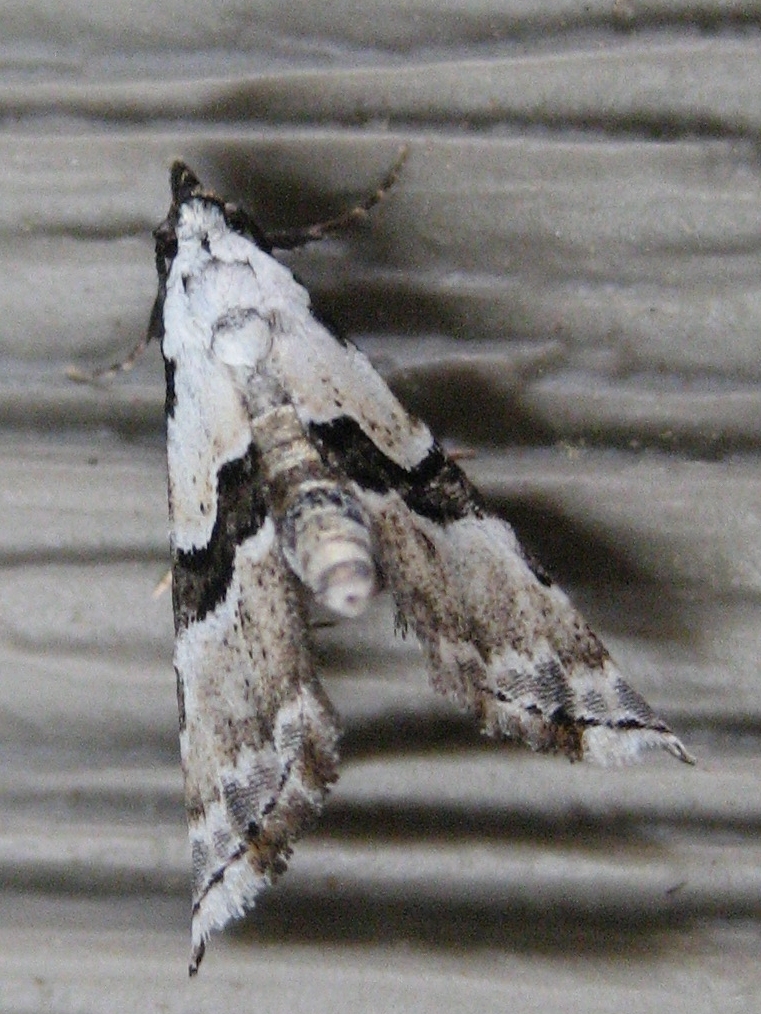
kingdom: Animalia
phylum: Arthropoda
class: Insecta
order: Lepidoptera
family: Noctuidae
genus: Nigetia
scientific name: Nigetia formosalis
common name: Thin-winged owlet
